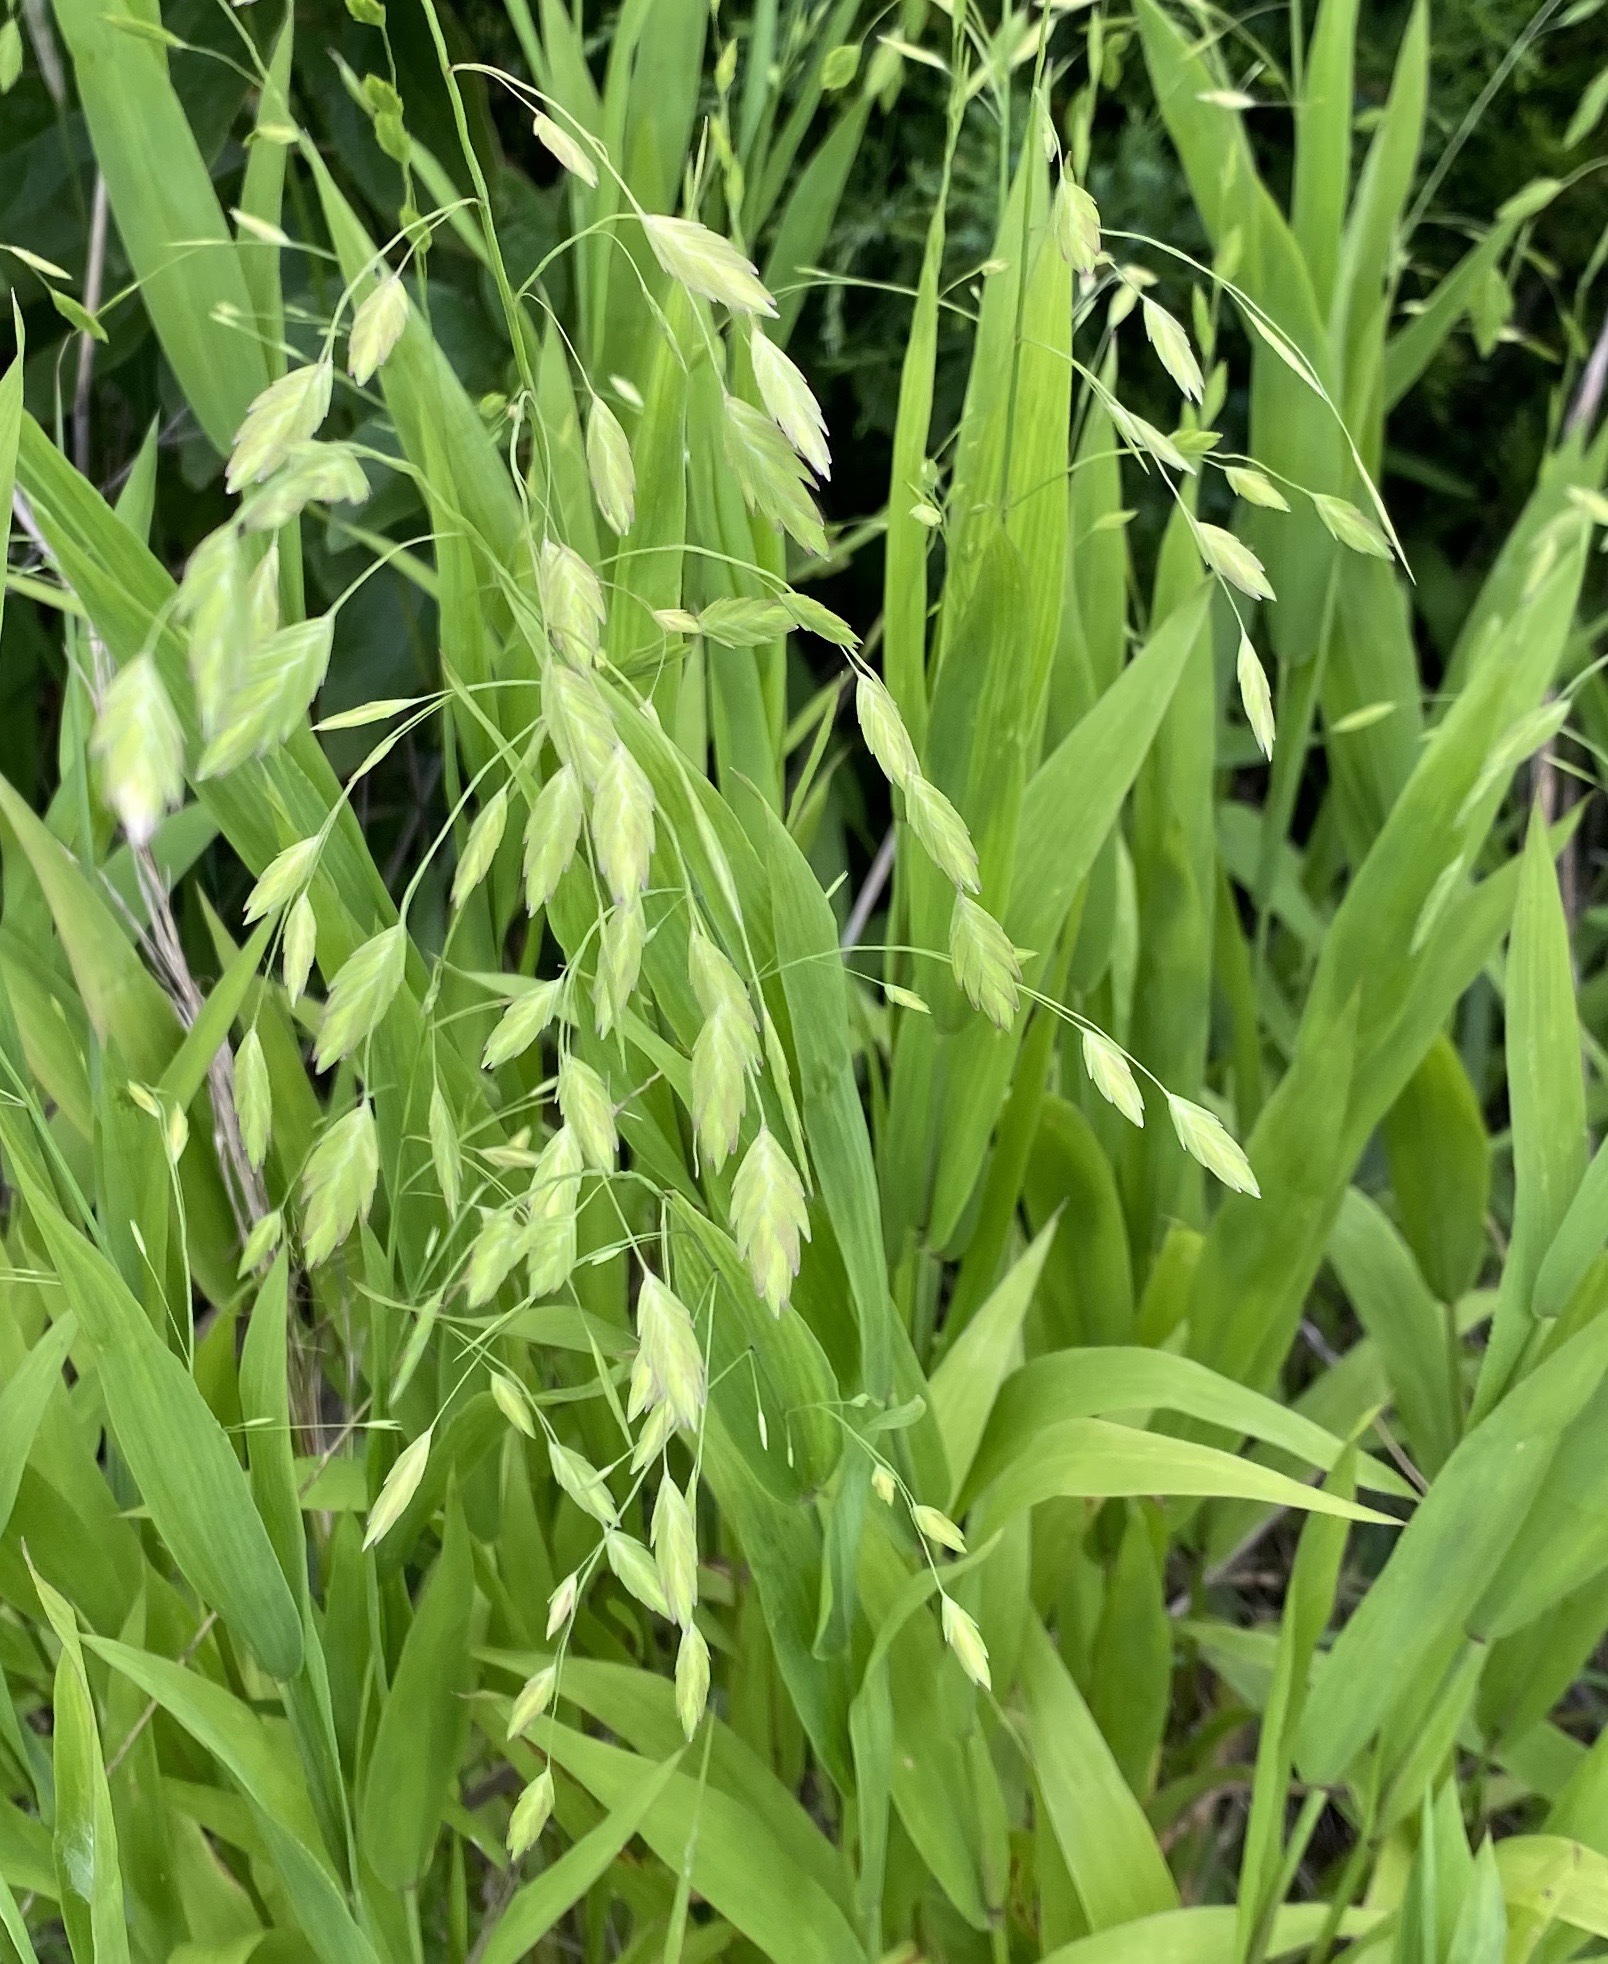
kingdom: Plantae
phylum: Tracheophyta
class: Liliopsida
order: Poales
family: Poaceae
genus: Chasmanthium
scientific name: Chasmanthium latifolium
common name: Broad-leaved chasmanthium
